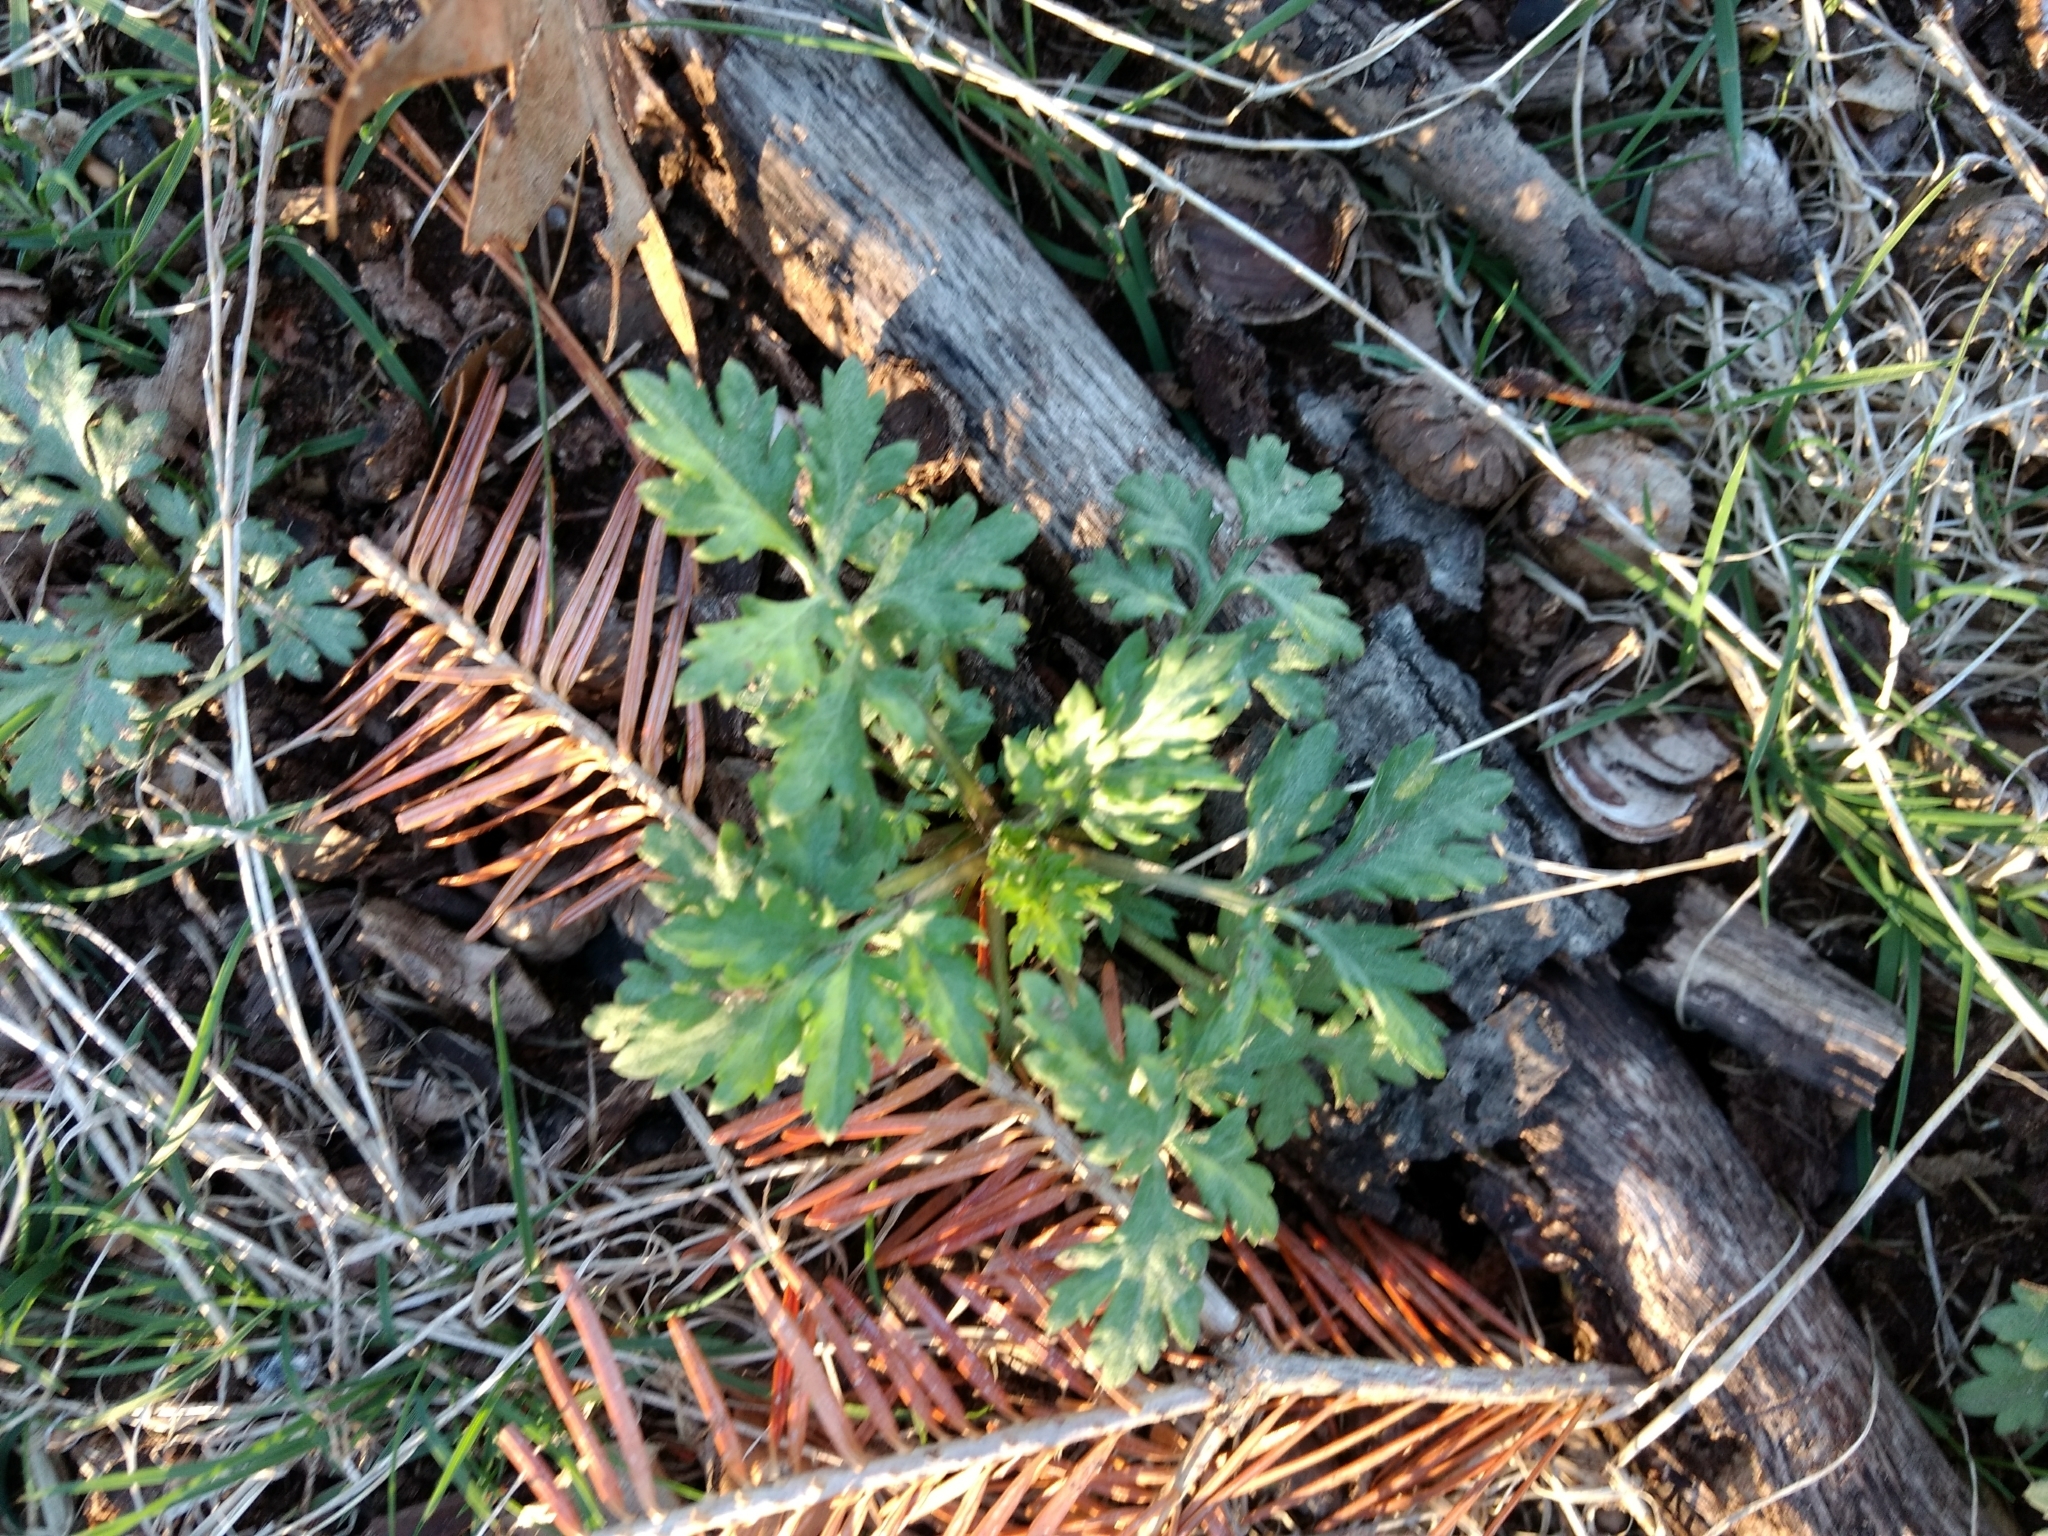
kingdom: Plantae
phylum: Tracheophyta
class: Magnoliopsida
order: Asterales
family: Asteraceae
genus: Artemisia
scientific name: Artemisia vulgaris
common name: Mugwort
